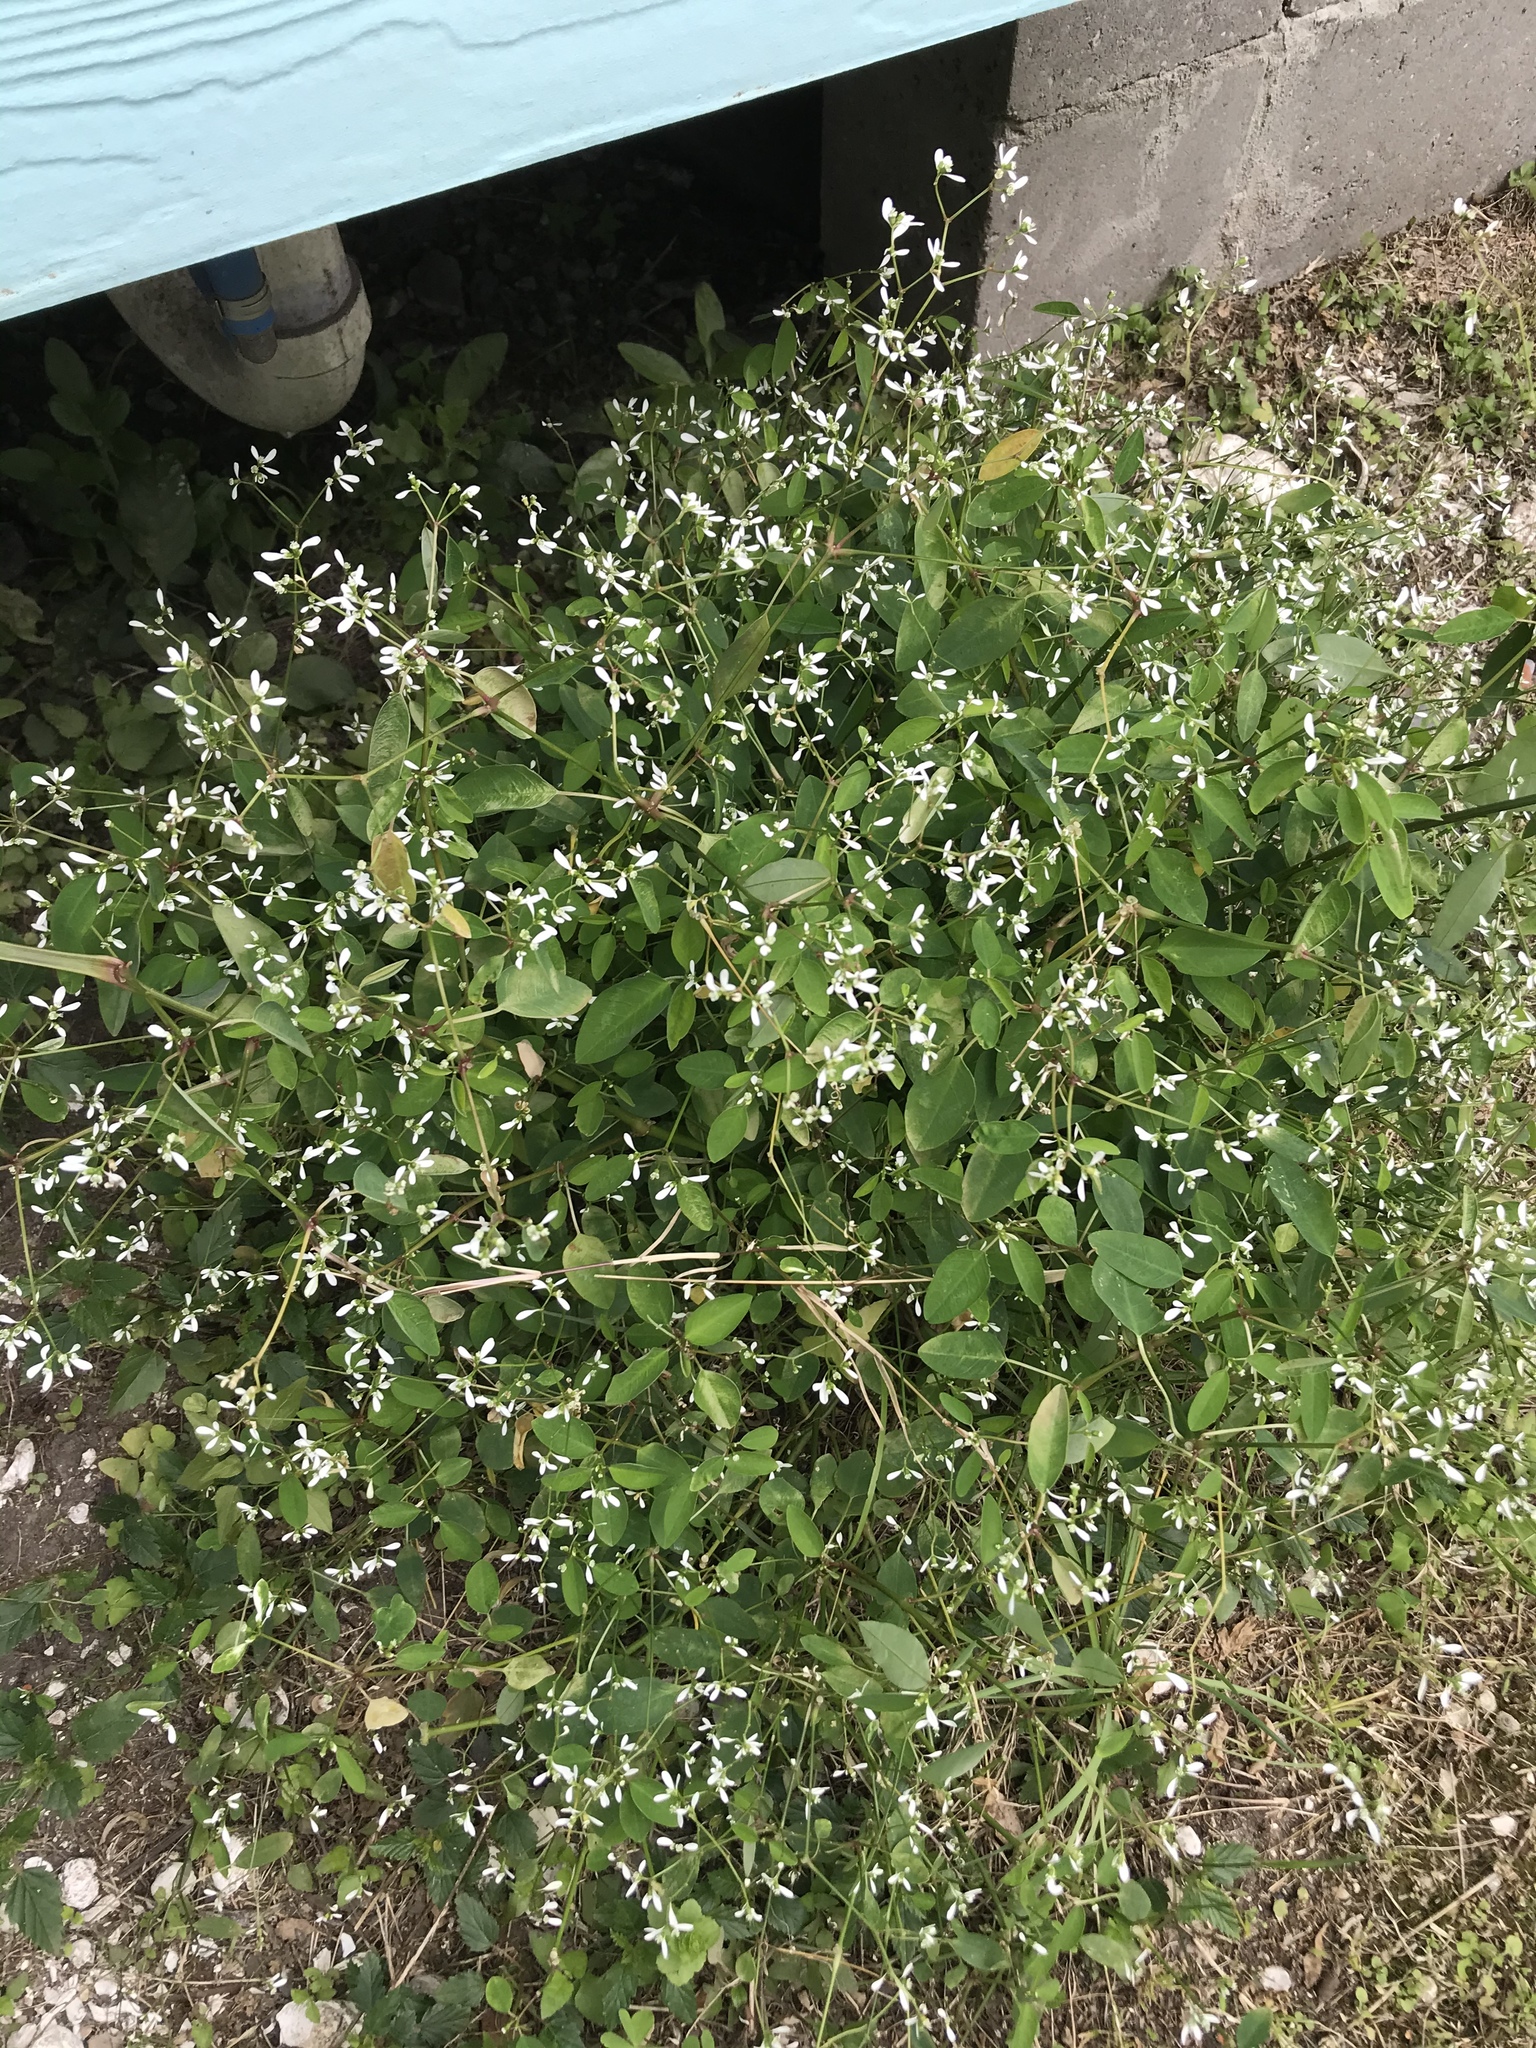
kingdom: Plantae
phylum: Tracheophyta
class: Magnoliopsida
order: Malpighiales
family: Euphorbiaceae
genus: Euphorbia
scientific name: Euphorbia graminea
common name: Grassleaf spurge
